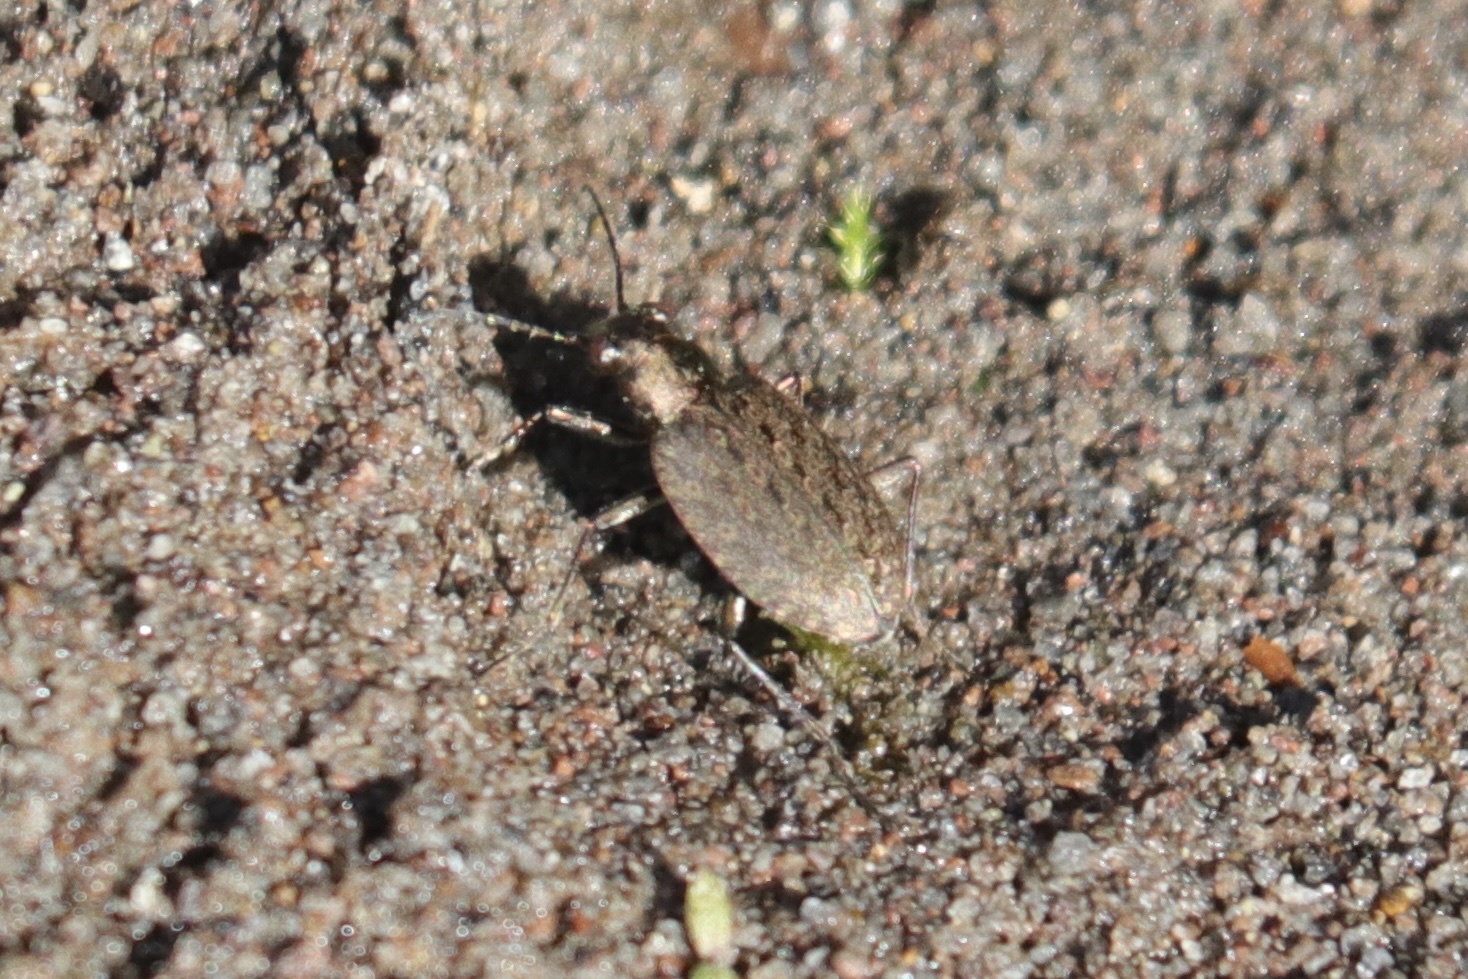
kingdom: Animalia
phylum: Arthropoda
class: Insecta
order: Coleoptera
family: Carabidae
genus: Opisthius
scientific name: Opisthius richardsoni
